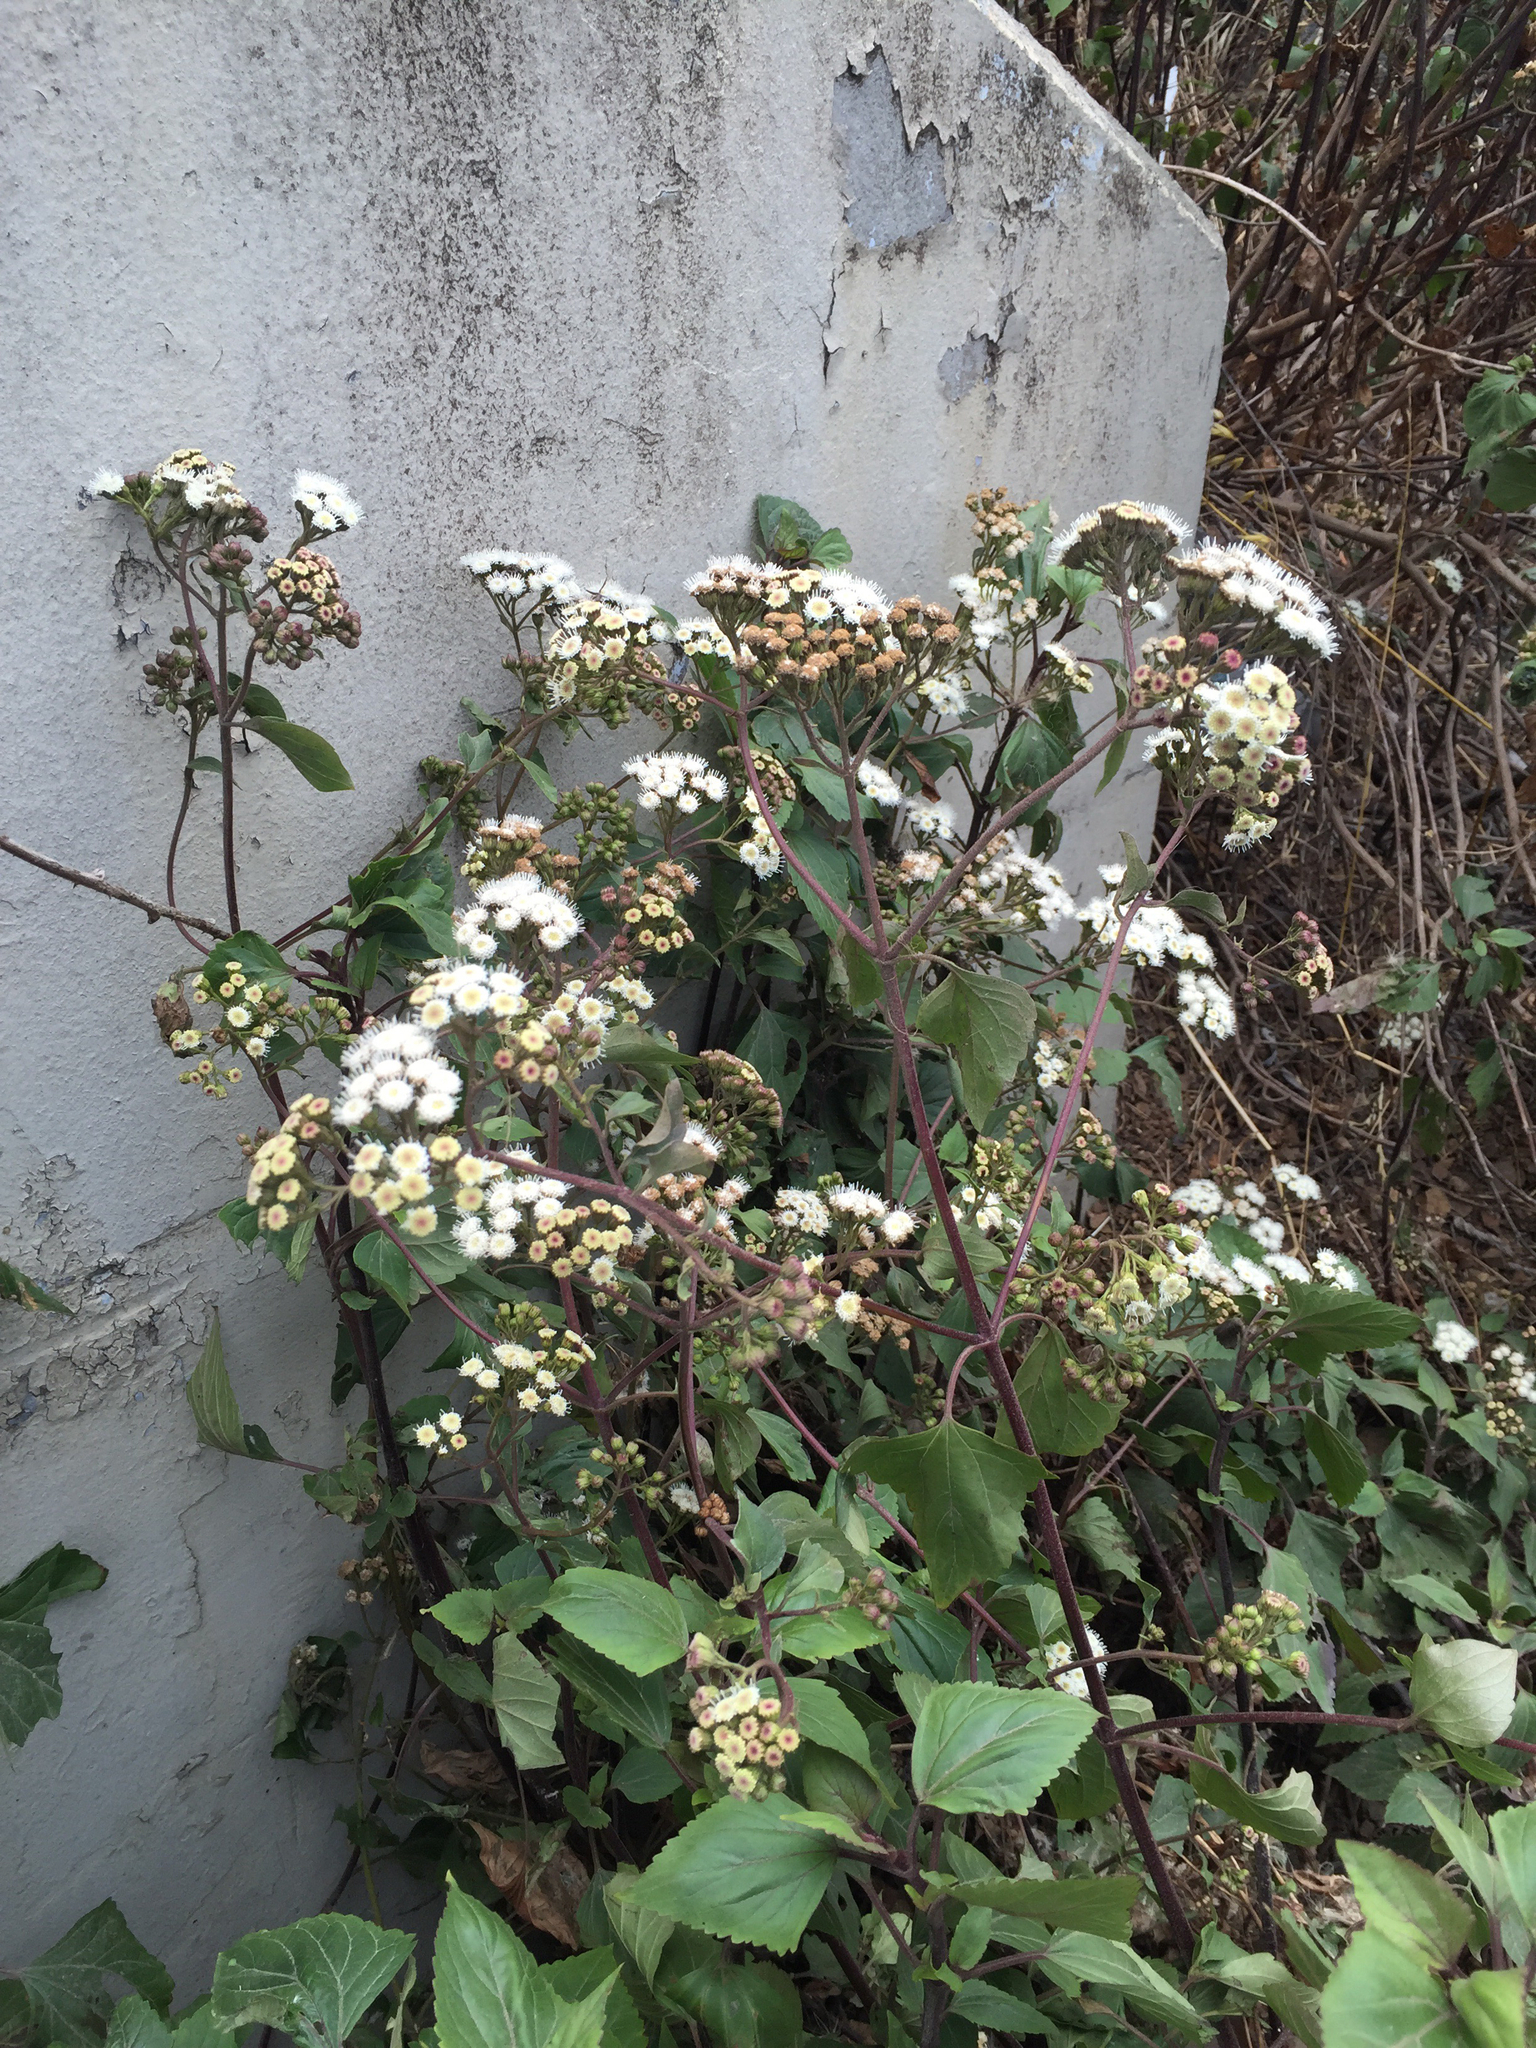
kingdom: Plantae
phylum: Tracheophyta
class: Magnoliopsida
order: Asterales
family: Asteraceae
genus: Ageratina
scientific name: Ageratina adenophora
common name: Sticky snakeroot
